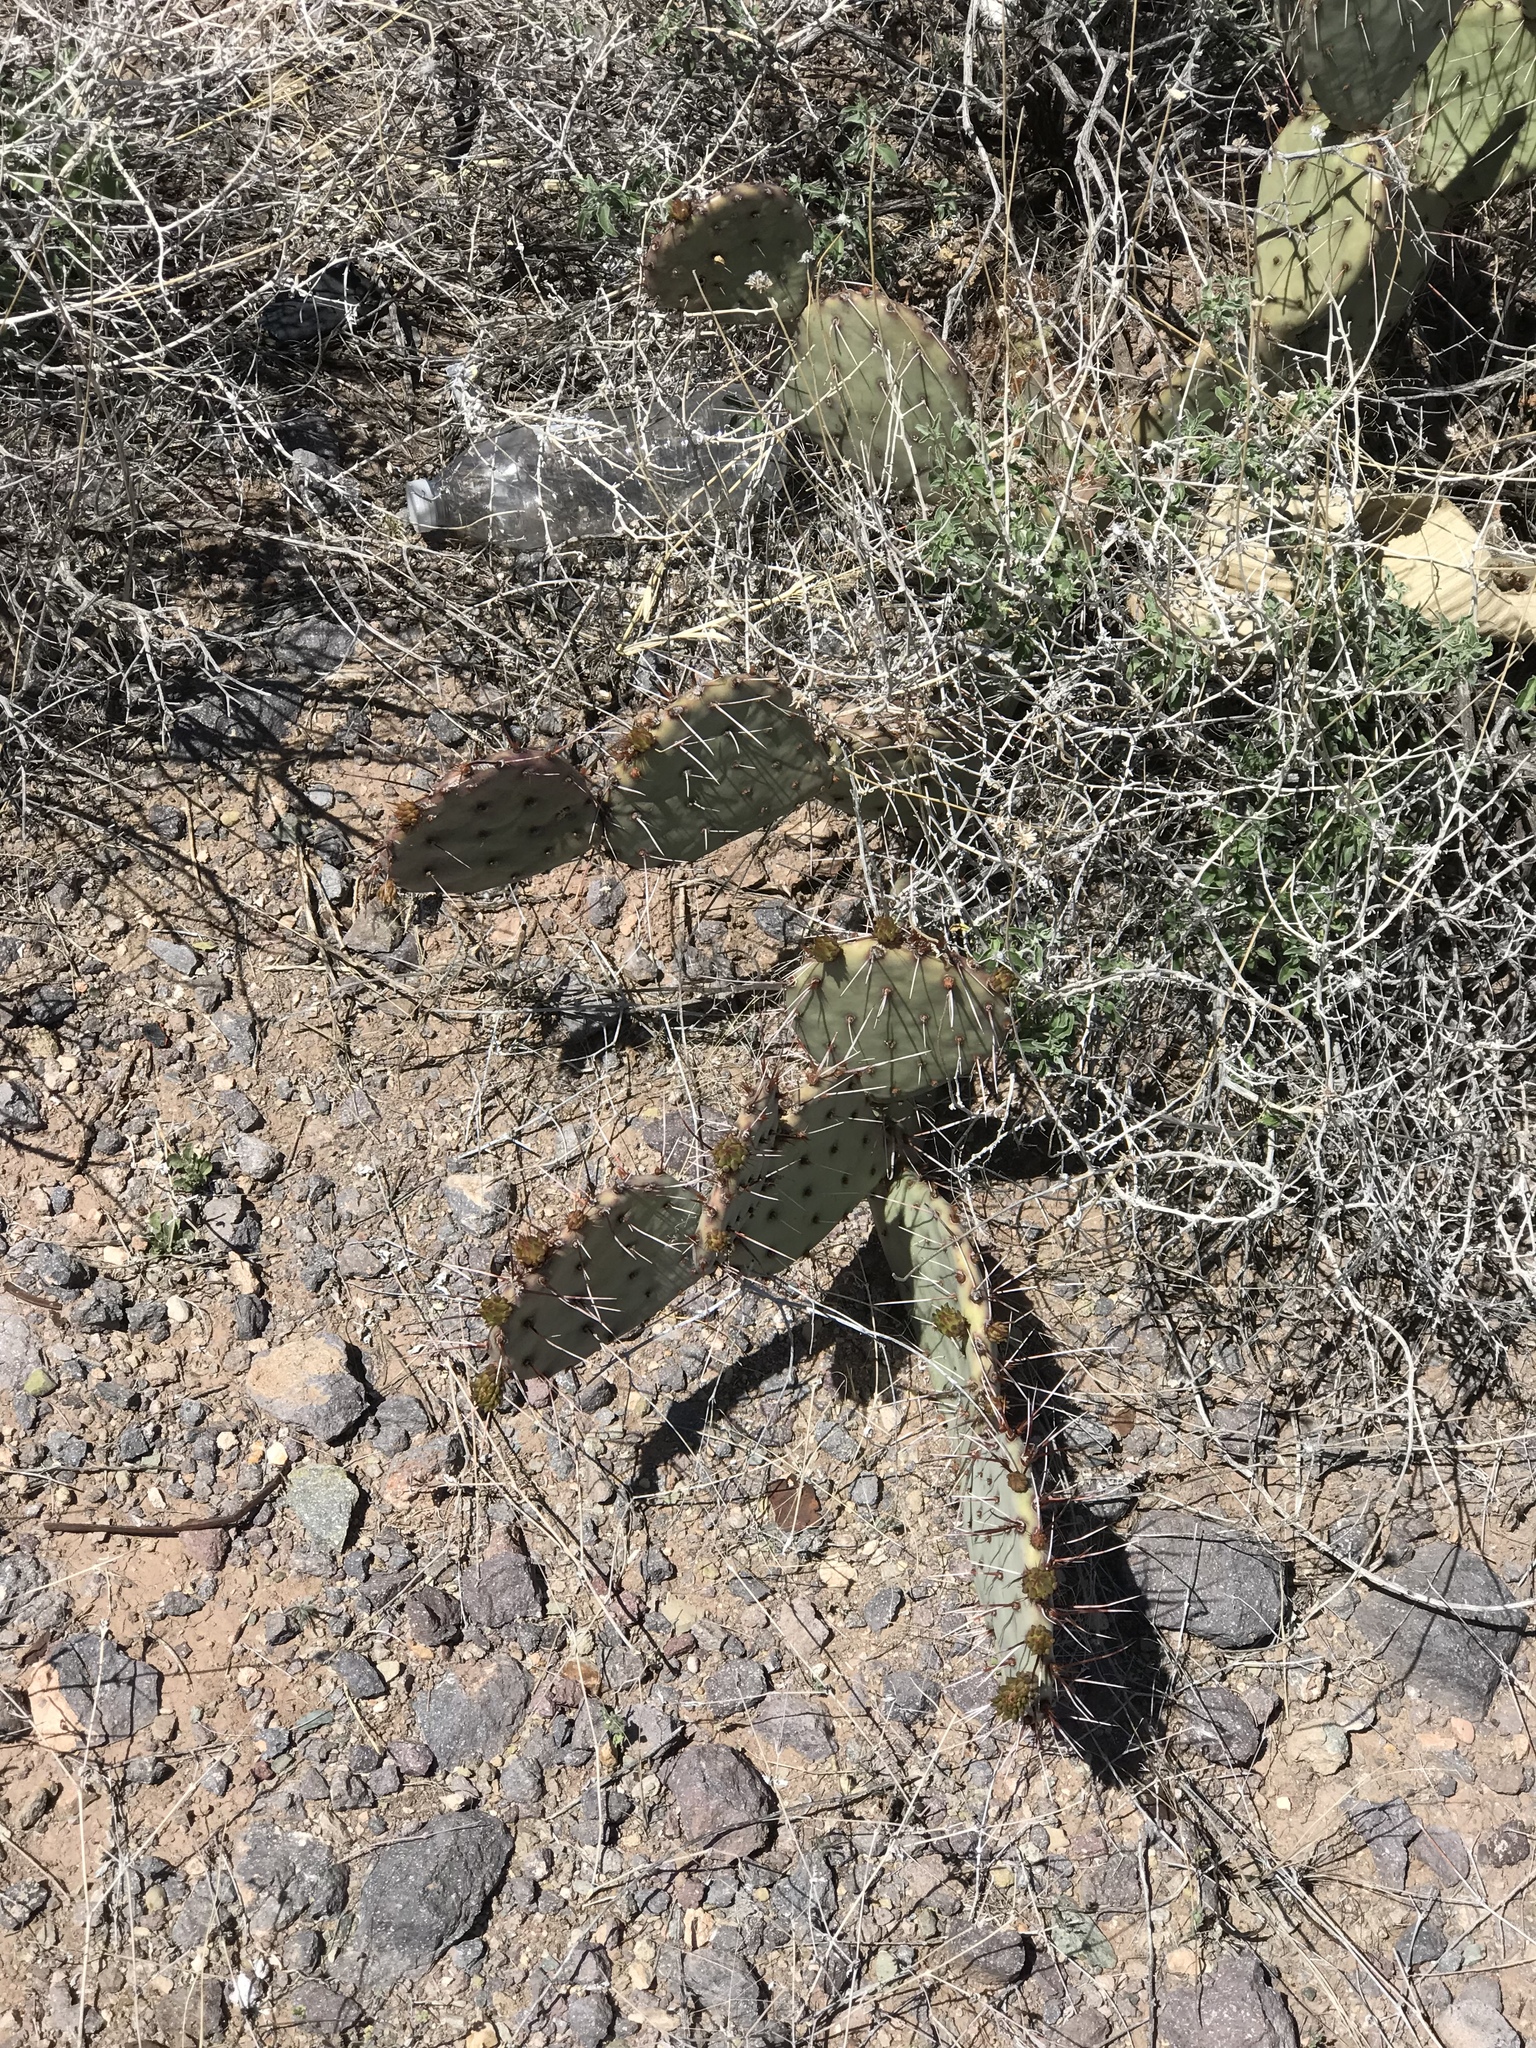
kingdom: Plantae
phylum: Tracheophyta
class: Magnoliopsida
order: Caryophyllales
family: Cactaceae
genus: Opuntia
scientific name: Opuntia phaeacantha
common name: New mexico prickly-pear
